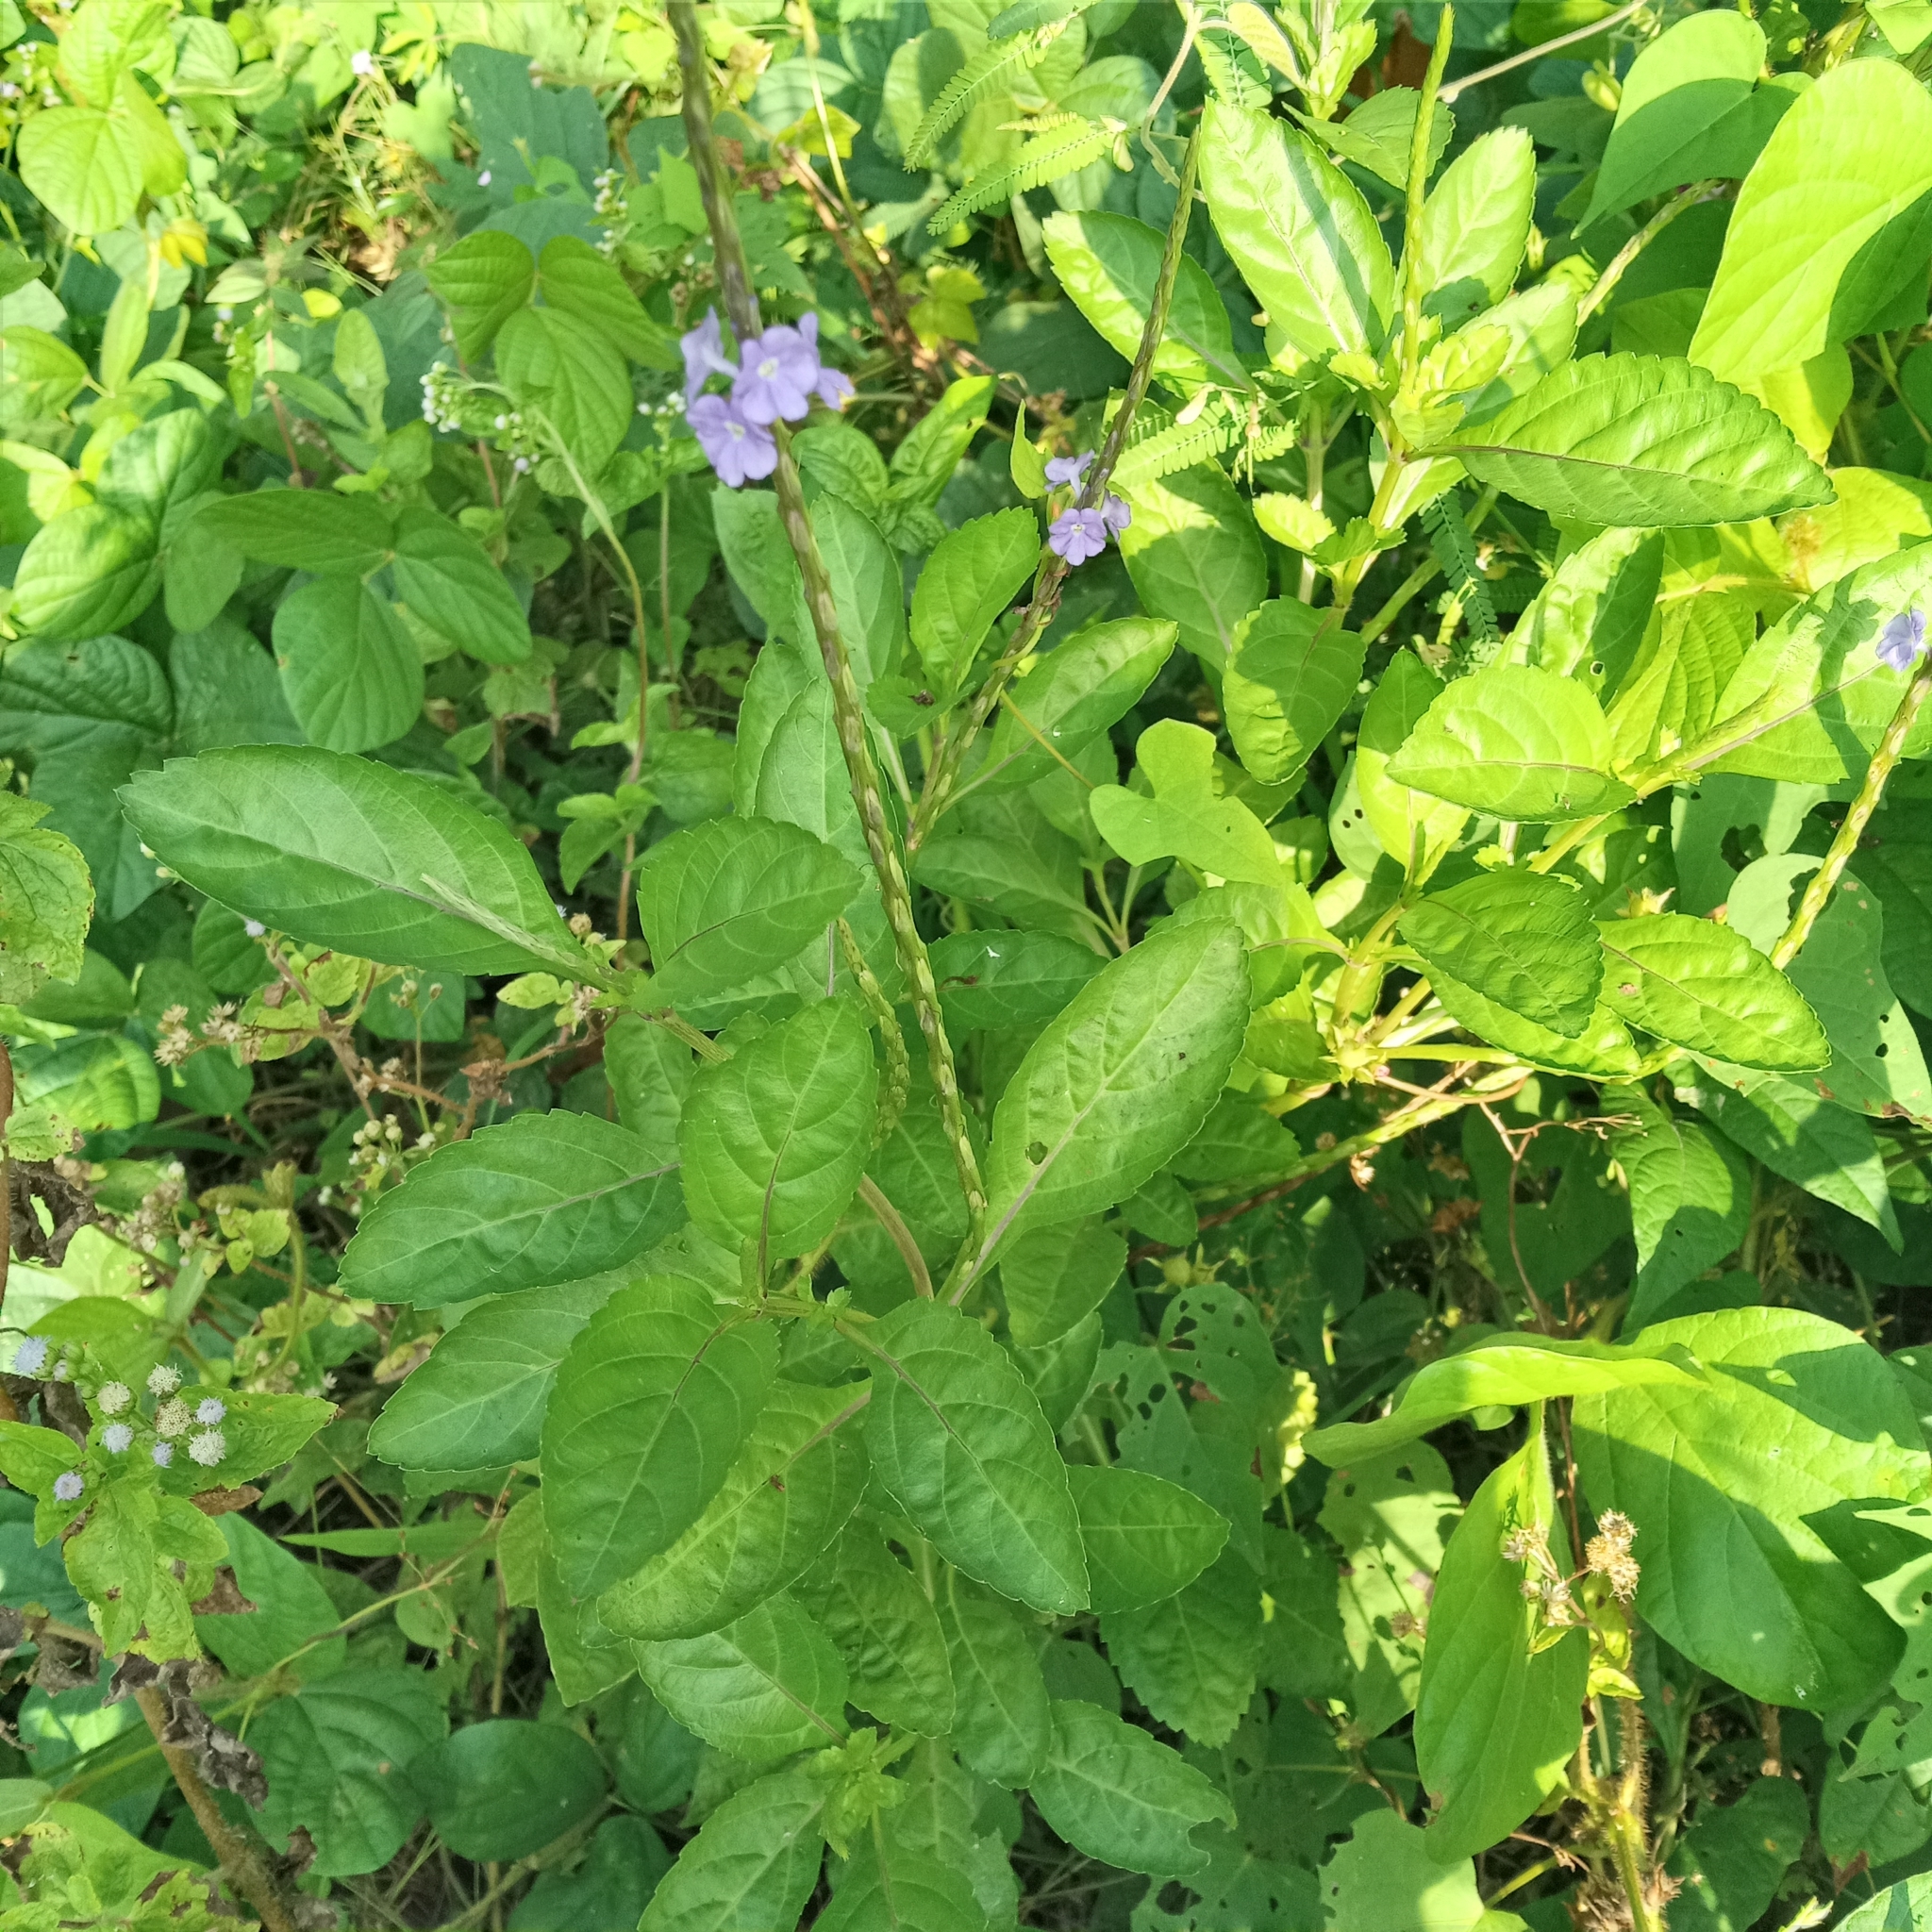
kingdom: Plantae
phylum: Tracheophyta
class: Magnoliopsida
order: Lamiales
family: Verbenaceae
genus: Stachytarpheta
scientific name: Stachytarpheta jamaicensis
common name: Light-blue snakeweed
